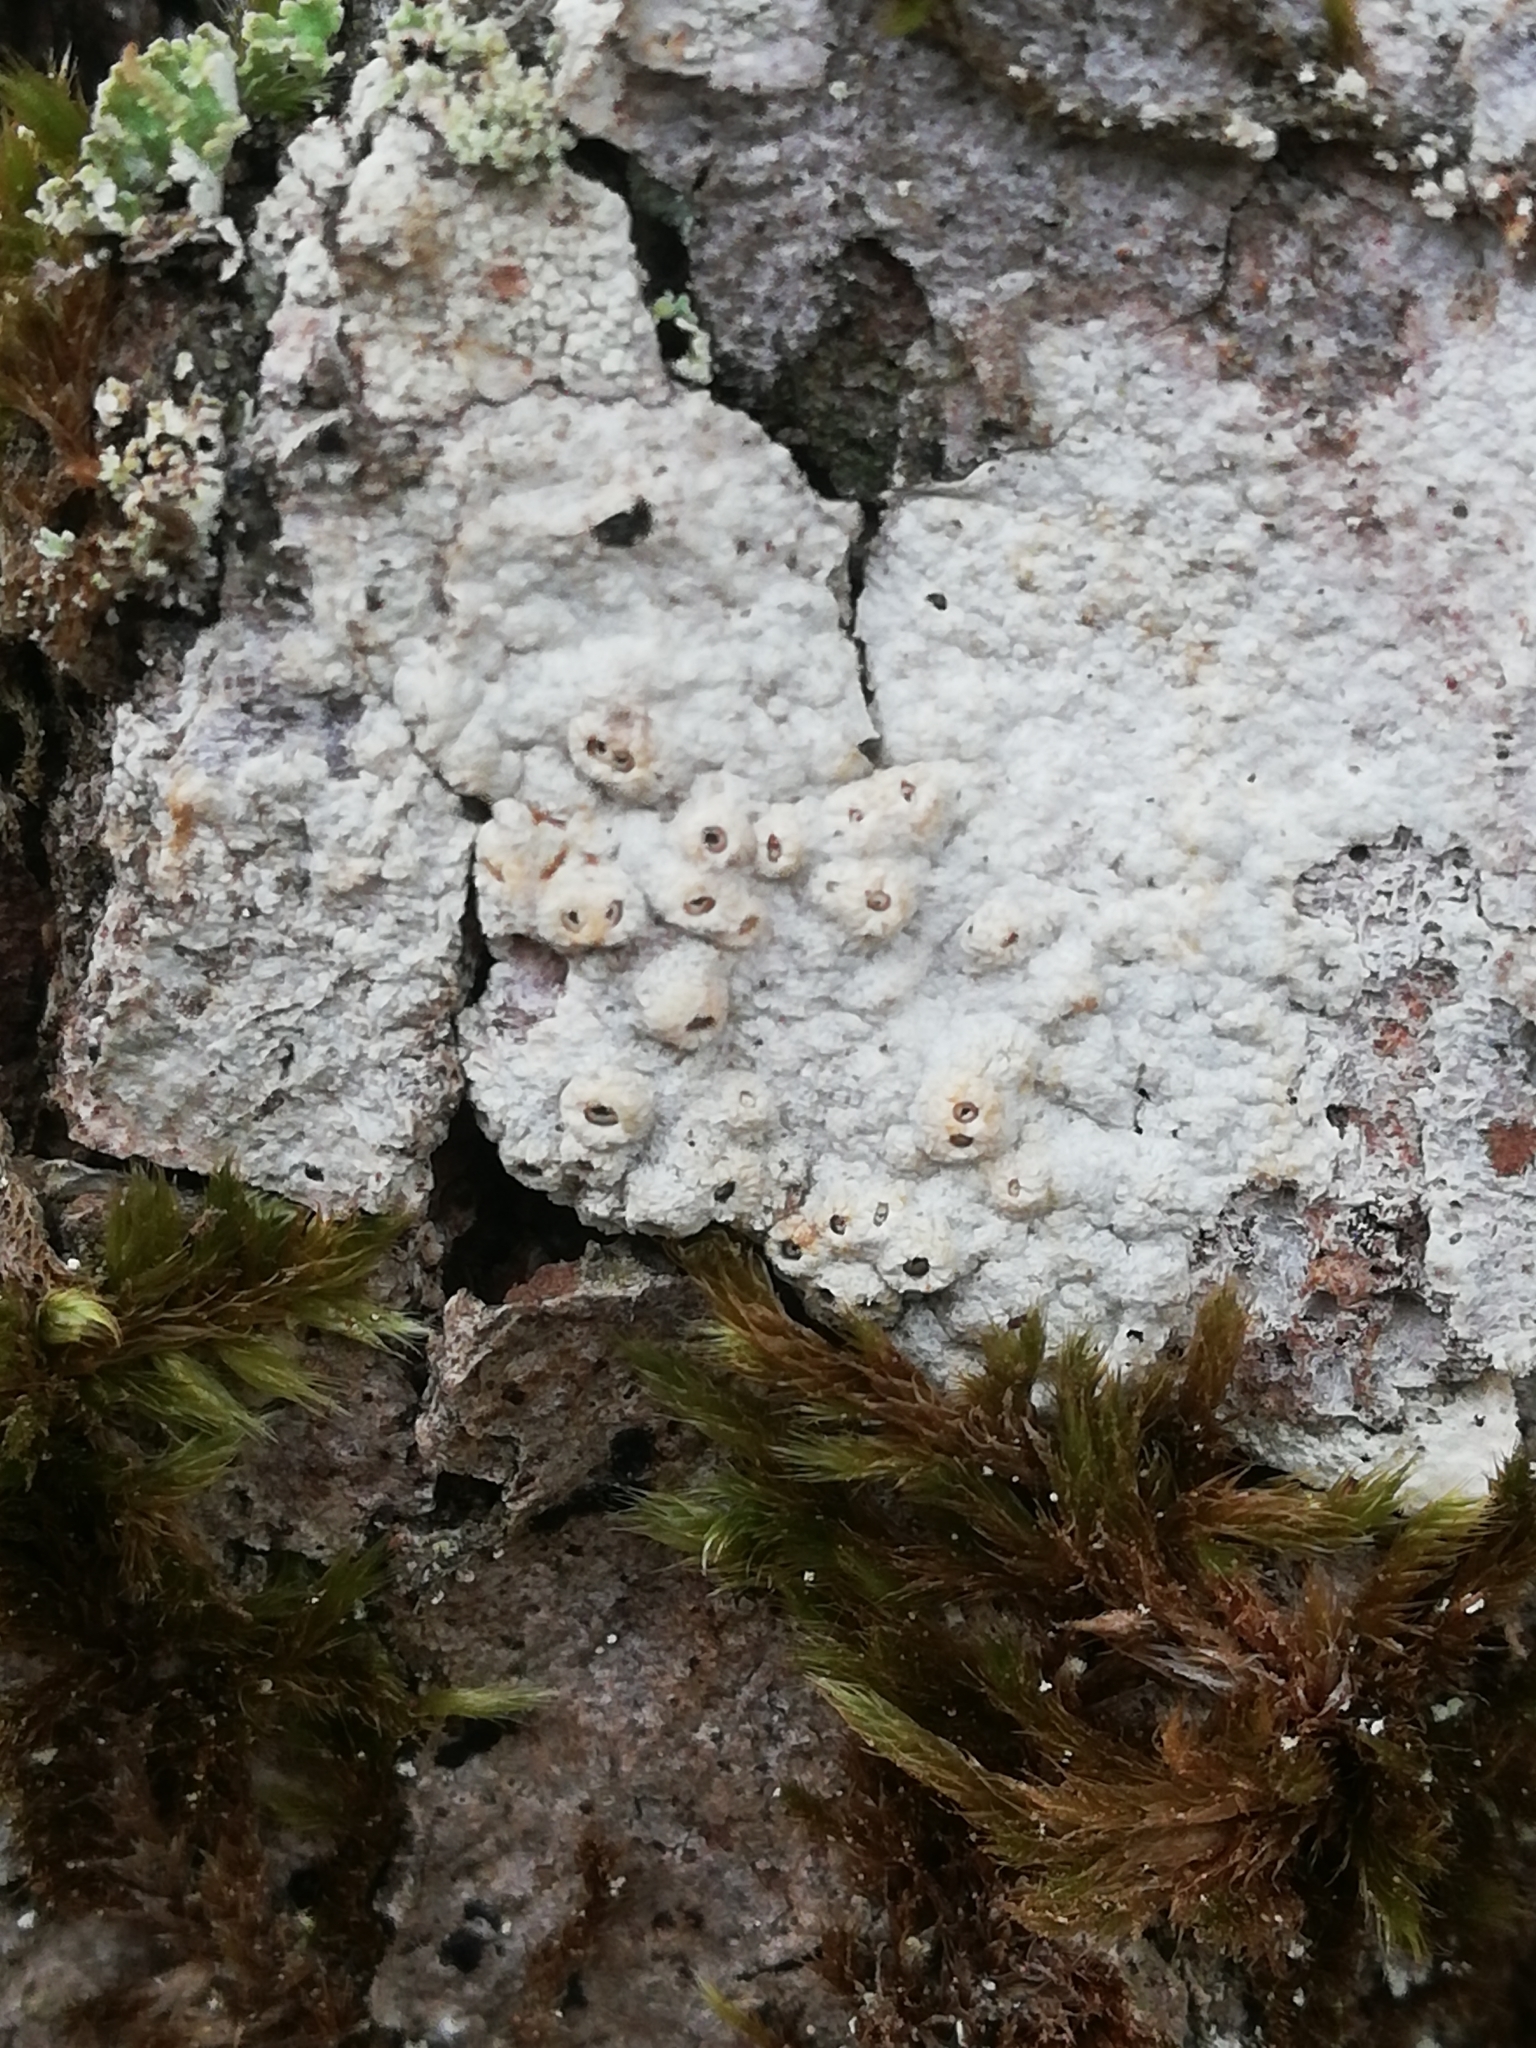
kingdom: Fungi
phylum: Ascomycota
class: Lecanoromycetes
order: Ostropales
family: Graphidaceae
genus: Thelotrema
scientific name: Thelotrema lepadinum
